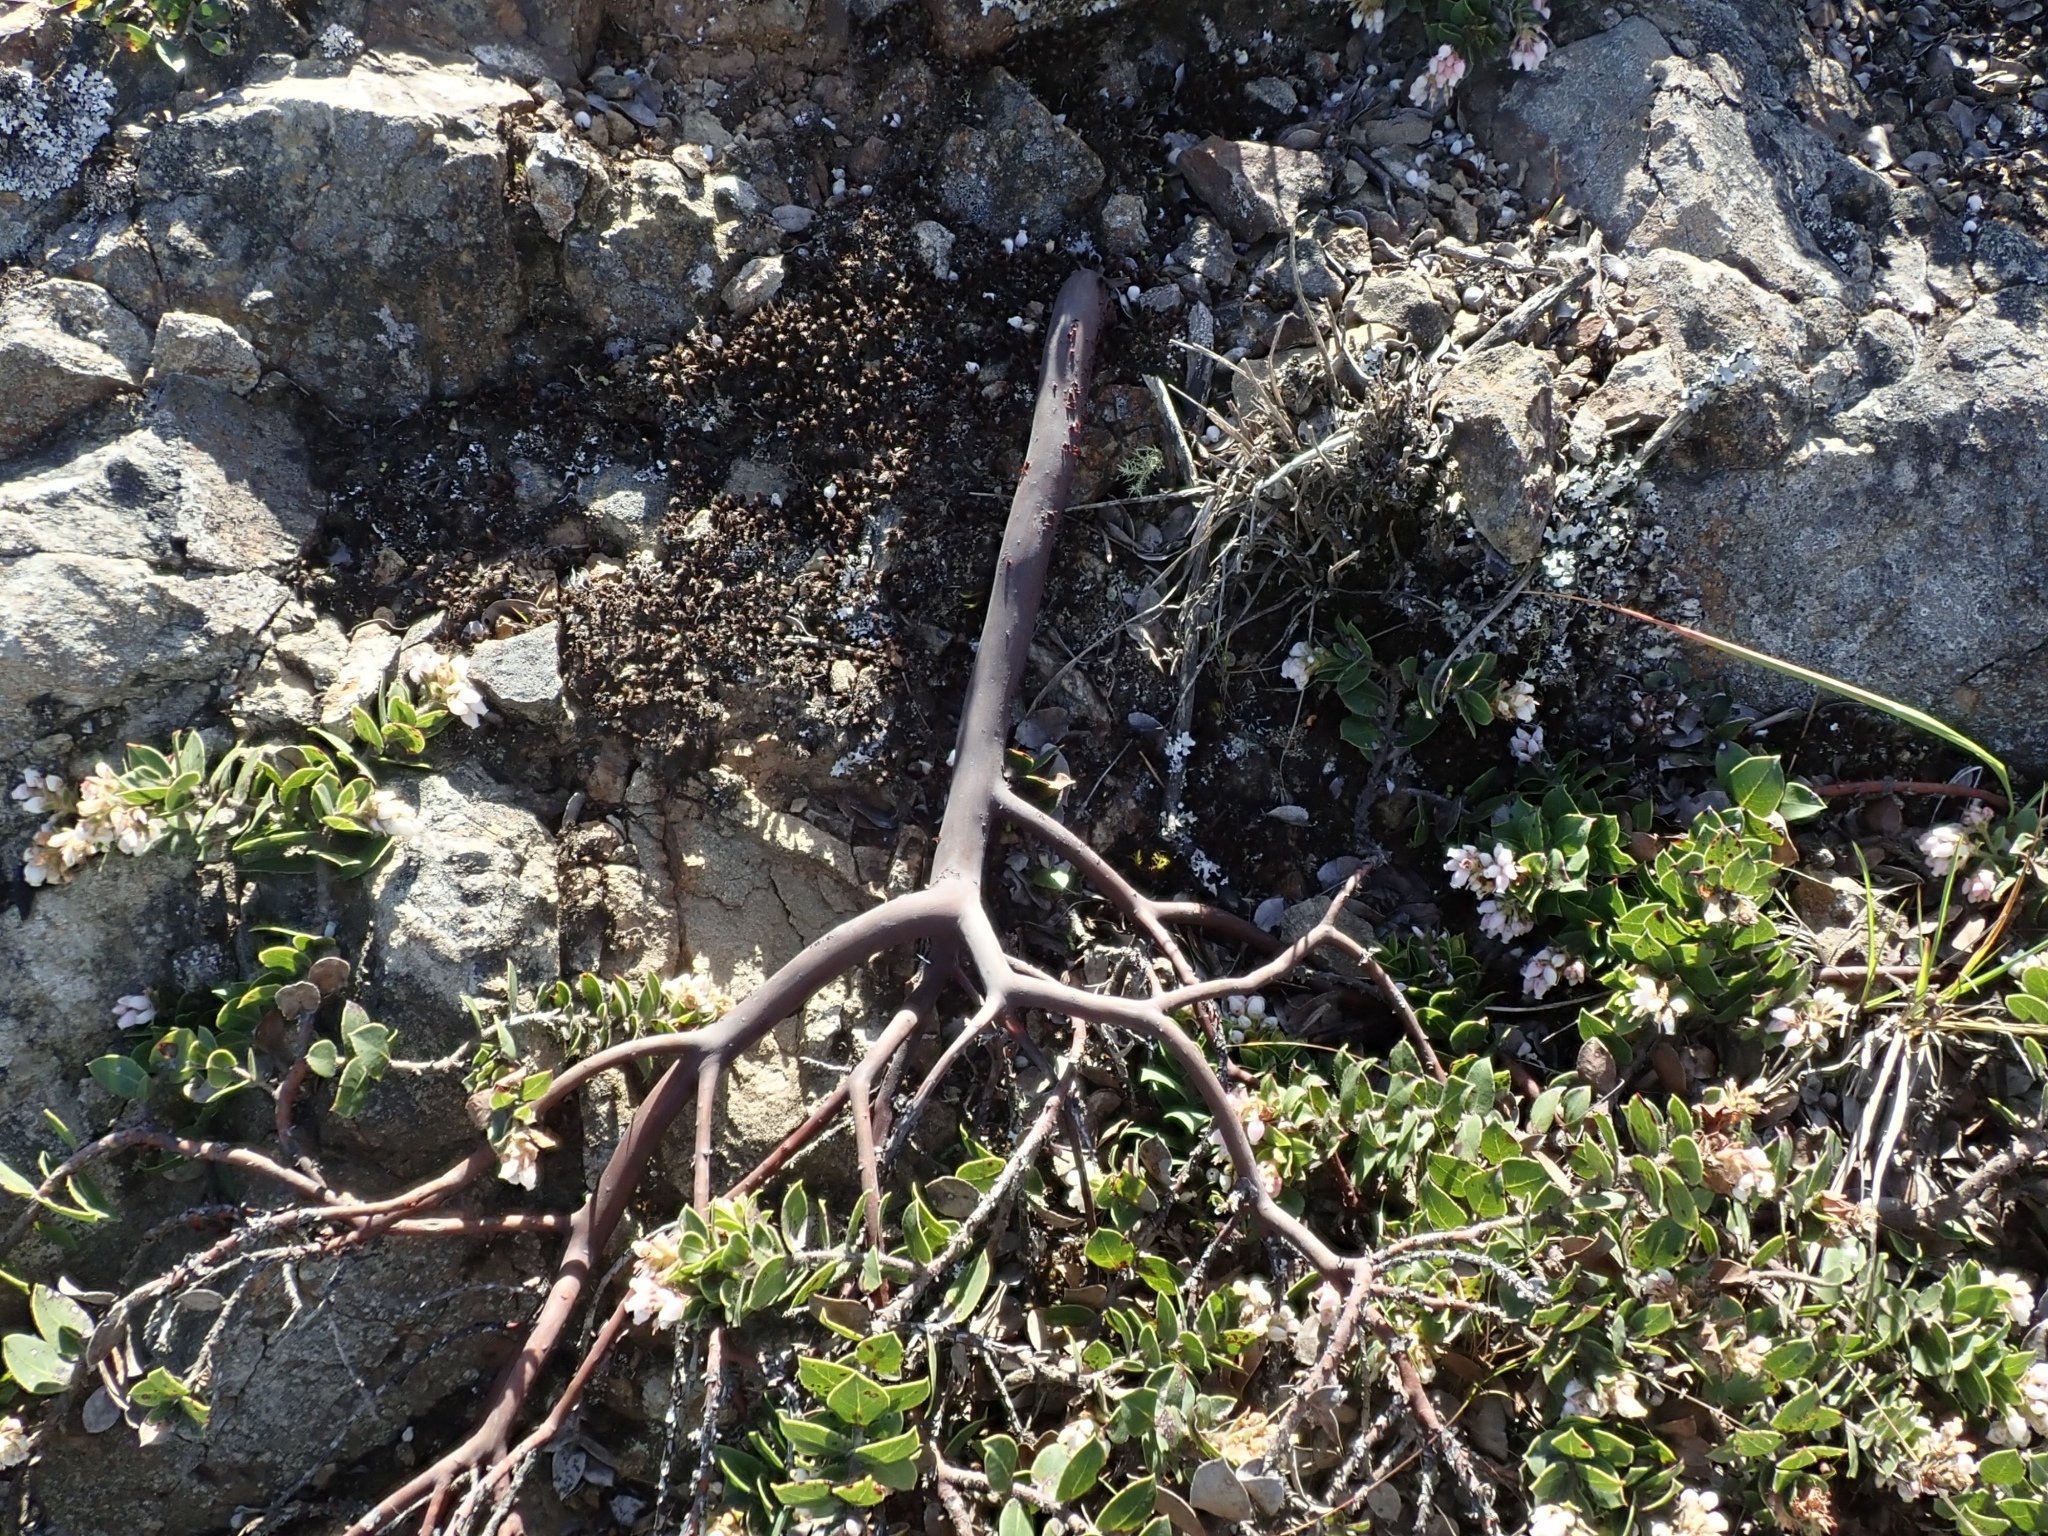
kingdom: Plantae
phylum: Tracheophyta
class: Magnoliopsida
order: Ericales
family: Ericaceae
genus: Arctostaphylos
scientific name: Arctostaphylos imbricata
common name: San bruno mountain manzanita
